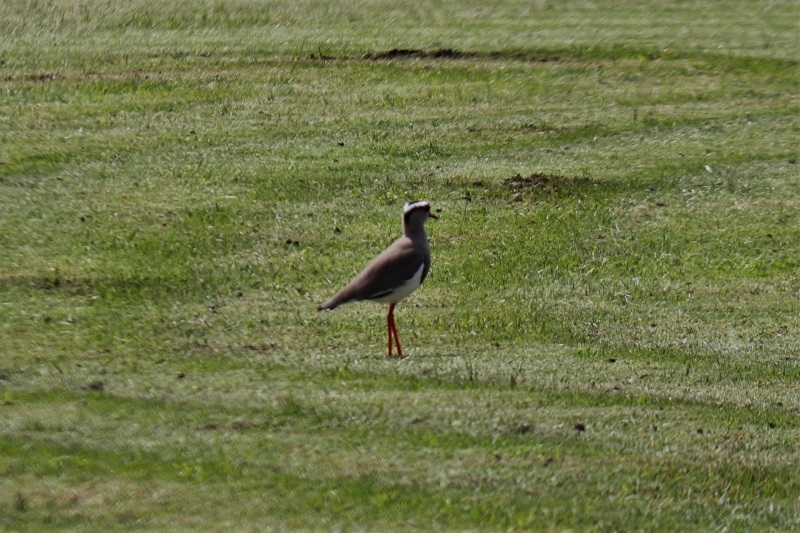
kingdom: Animalia
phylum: Chordata
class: Aves
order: Charadriiformes
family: Charadriidae
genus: Vanellus
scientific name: Vanellus coronatus
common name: Crowned lapwing
